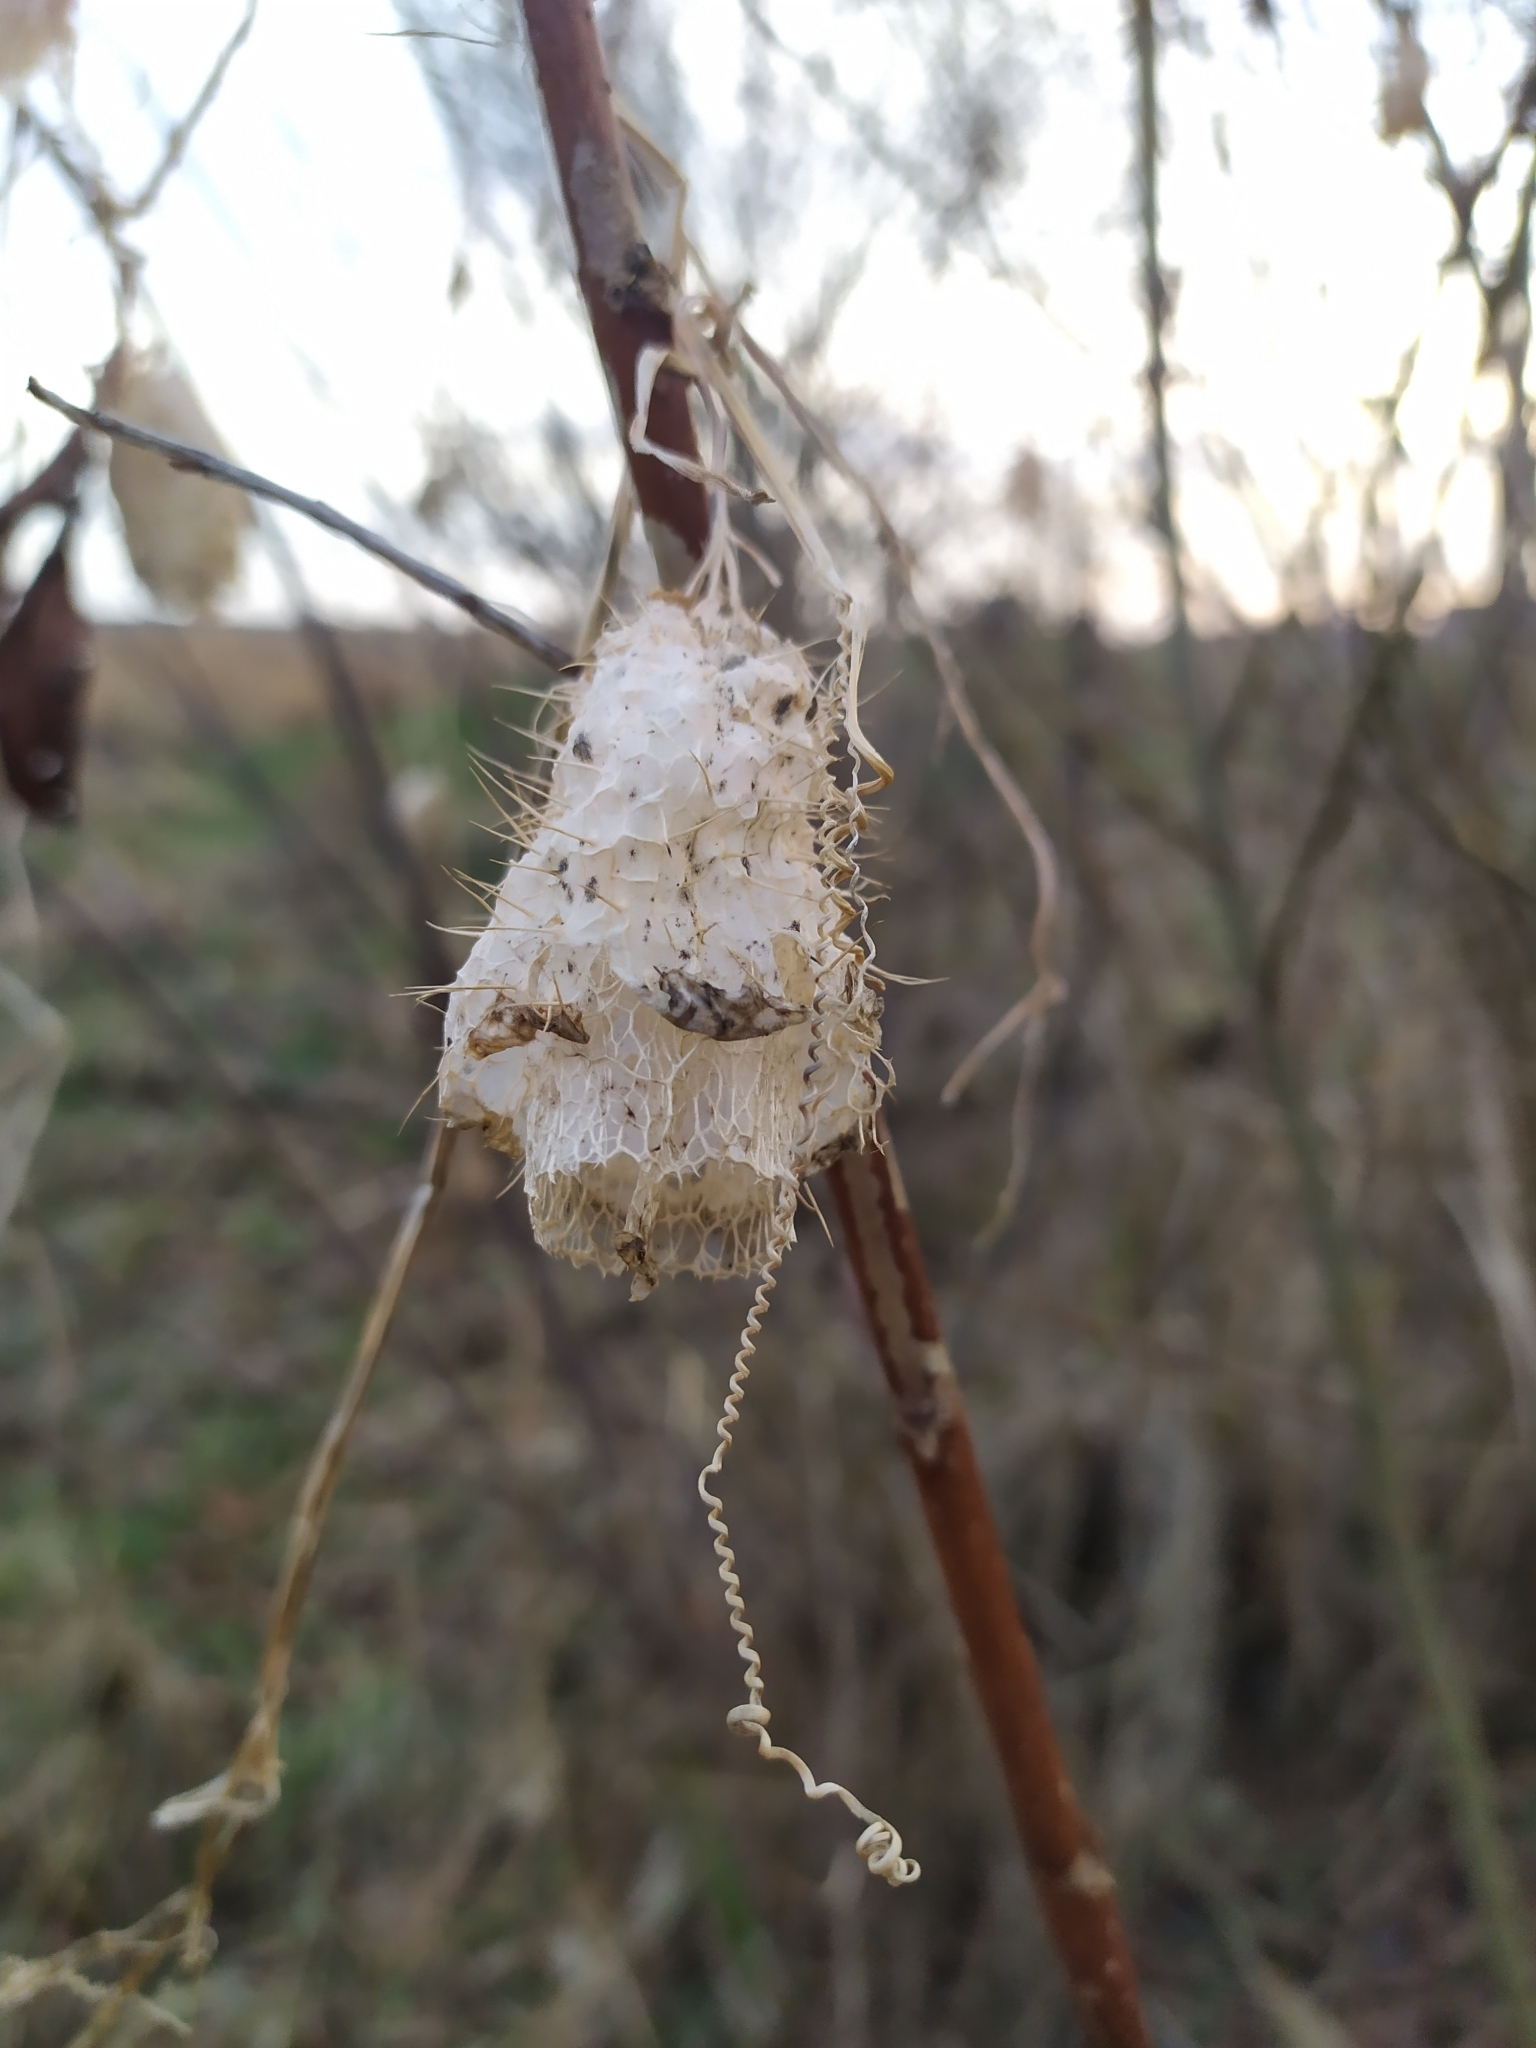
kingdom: Plantae
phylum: Tracheophyta
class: Magnoliopsida
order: Cucurbitales
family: Cucurbitaceae
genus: Echinocystis
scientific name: Echinocystis lobata
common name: Wild cucumber
